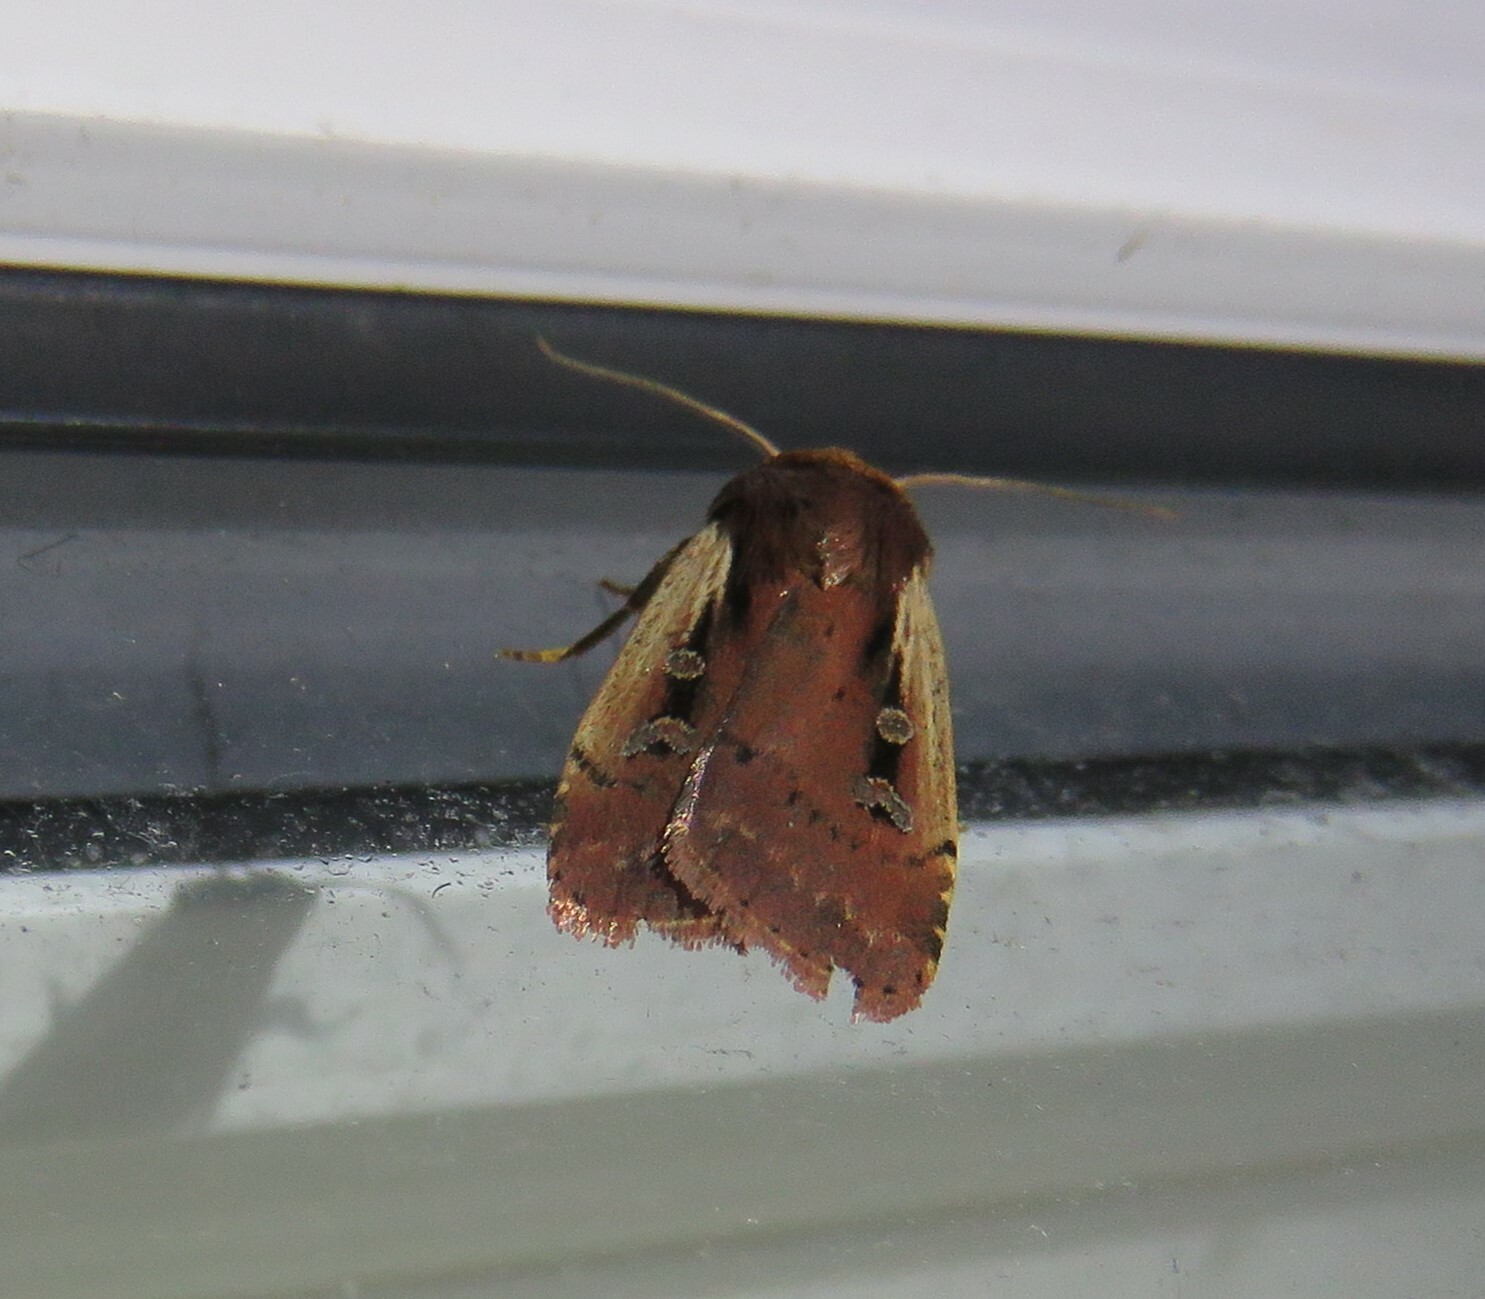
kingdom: Animalia
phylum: Arthropoda
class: Insecta
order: Lepidoptera
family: Noctuidae
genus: Ochropleura
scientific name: Ochropleura implecta
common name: Flame-shouldered dart
